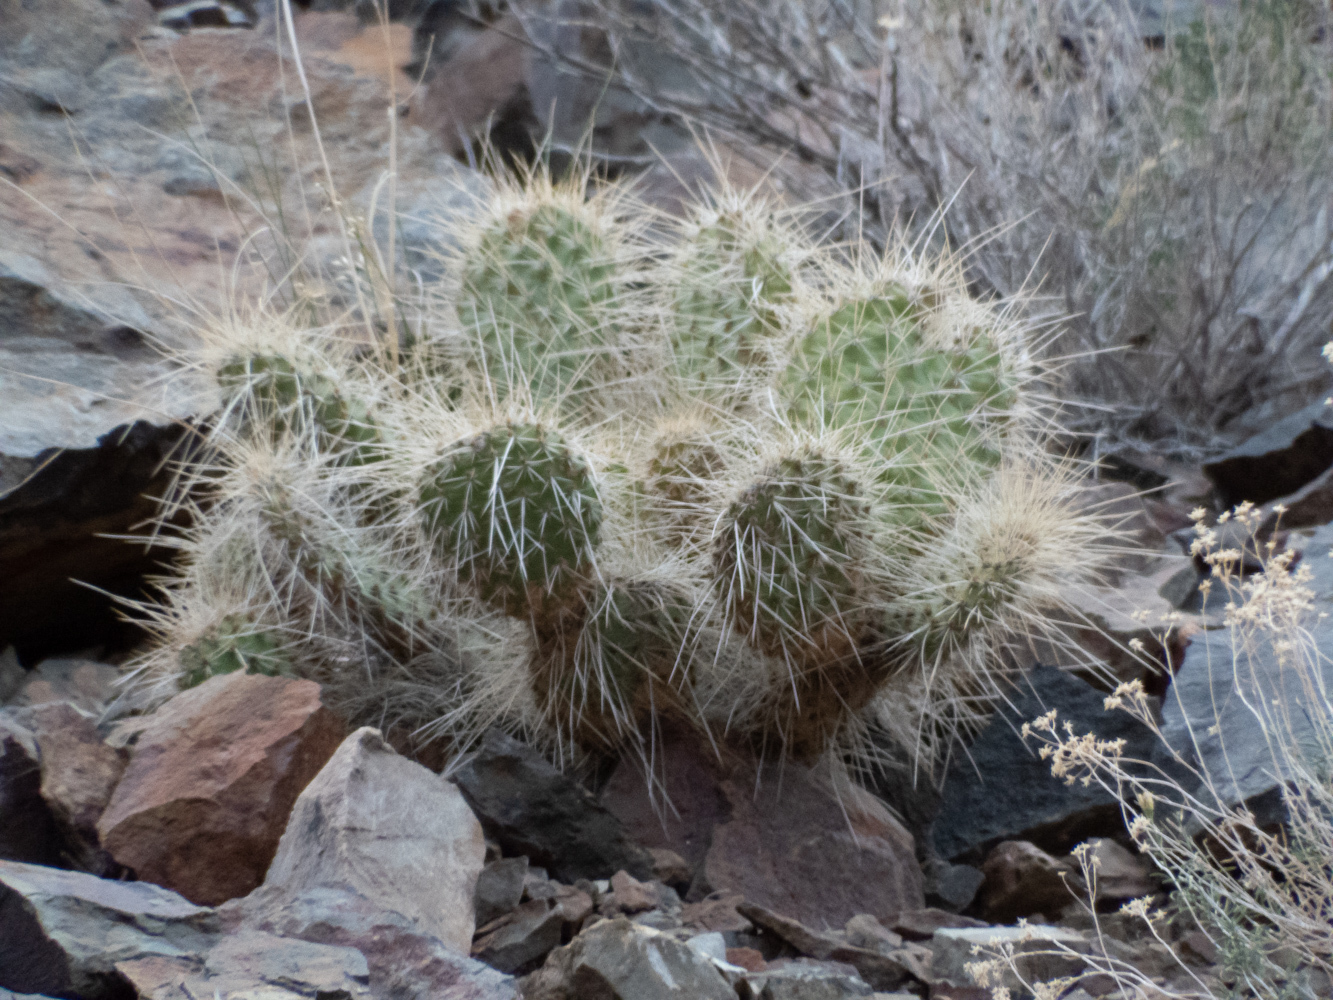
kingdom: Plantae
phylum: Tracheophyta
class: Magnoliopsida
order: Caryophyllales
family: Cactaceae
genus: Opuntia
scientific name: Opuntia polyacantha
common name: Plains prickly-pear
